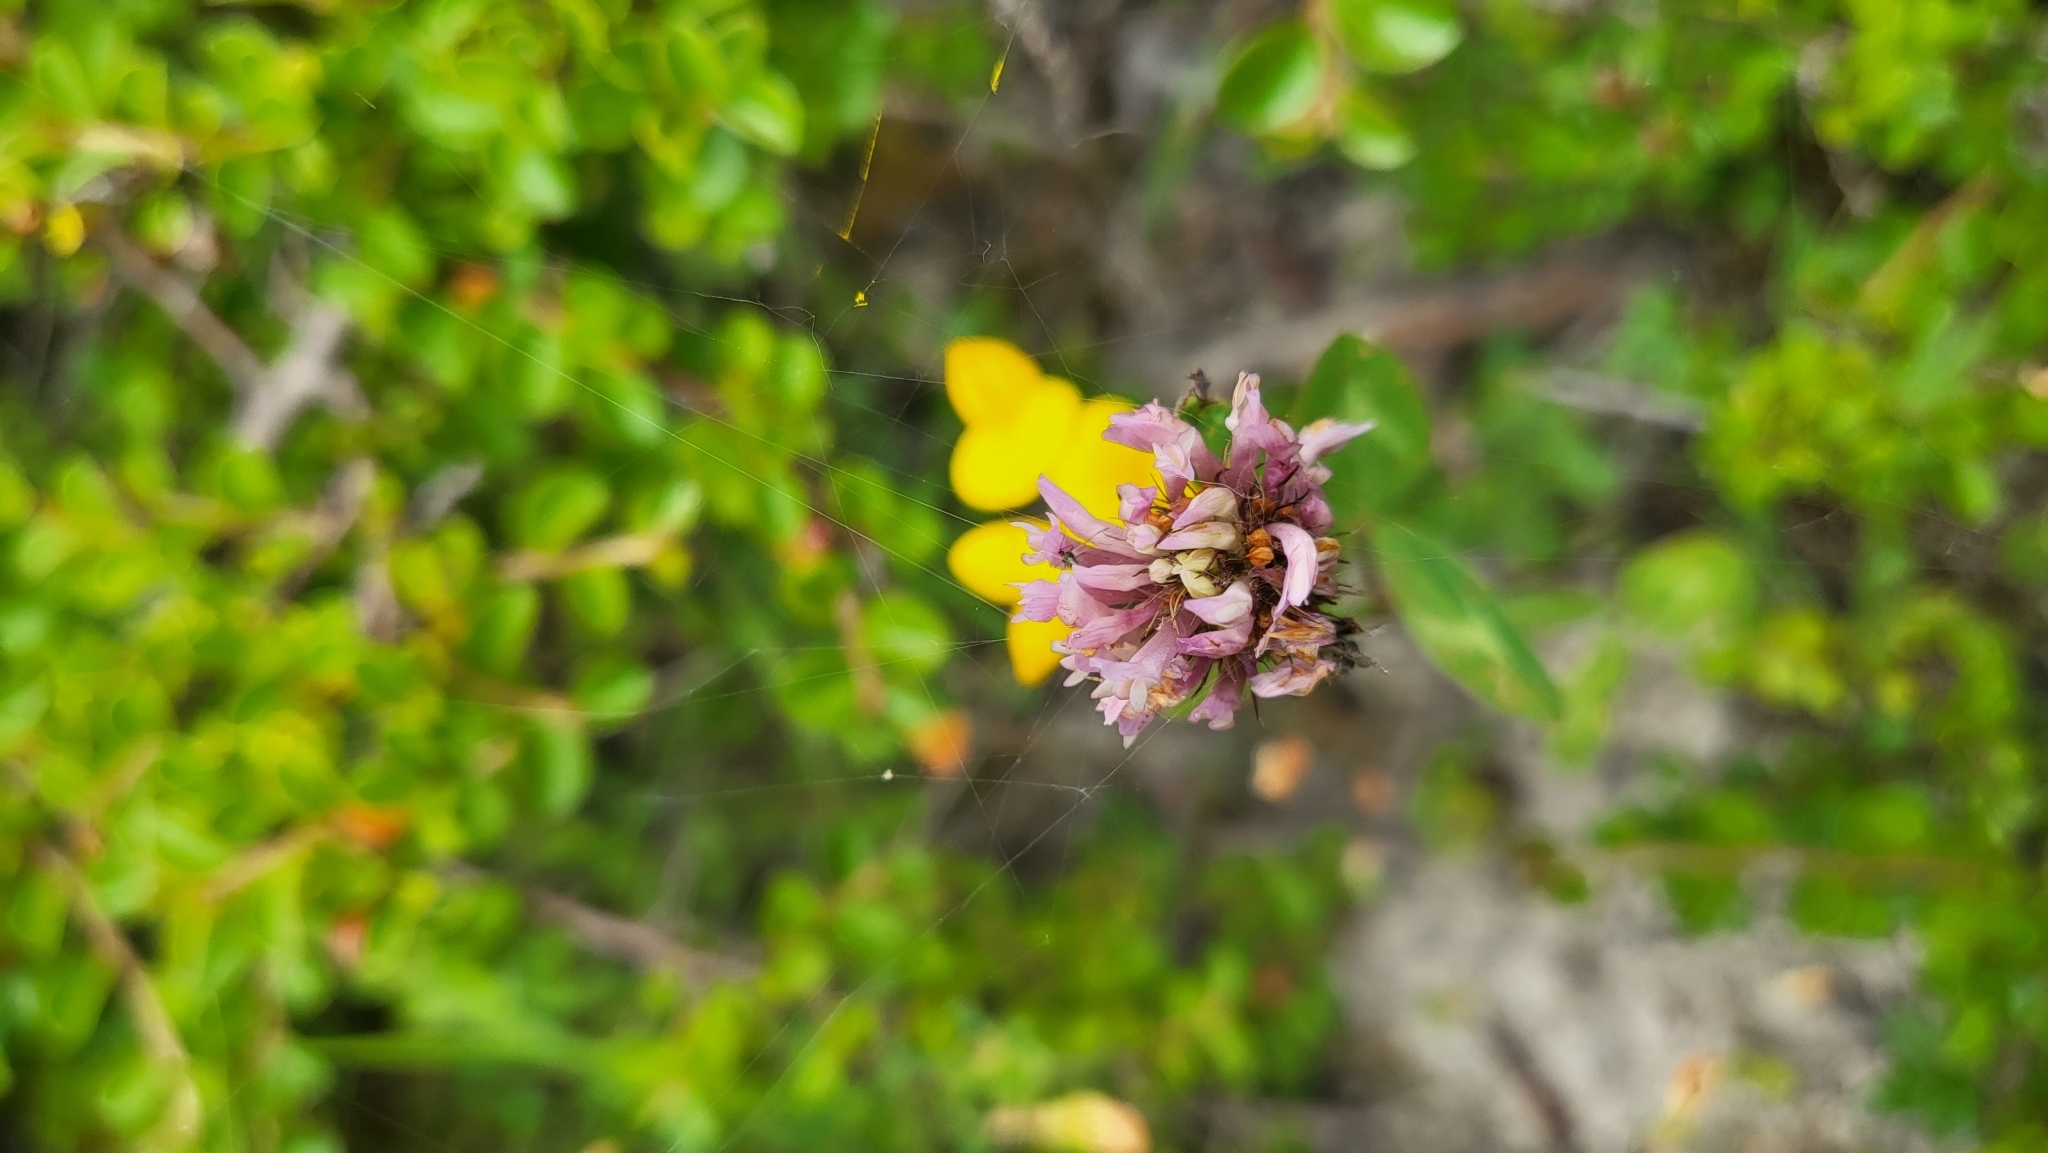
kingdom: Plantae
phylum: Tracheophyta
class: Magnoliopsida
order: Fabales
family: Fabaceae
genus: Trifolium
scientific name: Trifolium pratense
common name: Red clover
